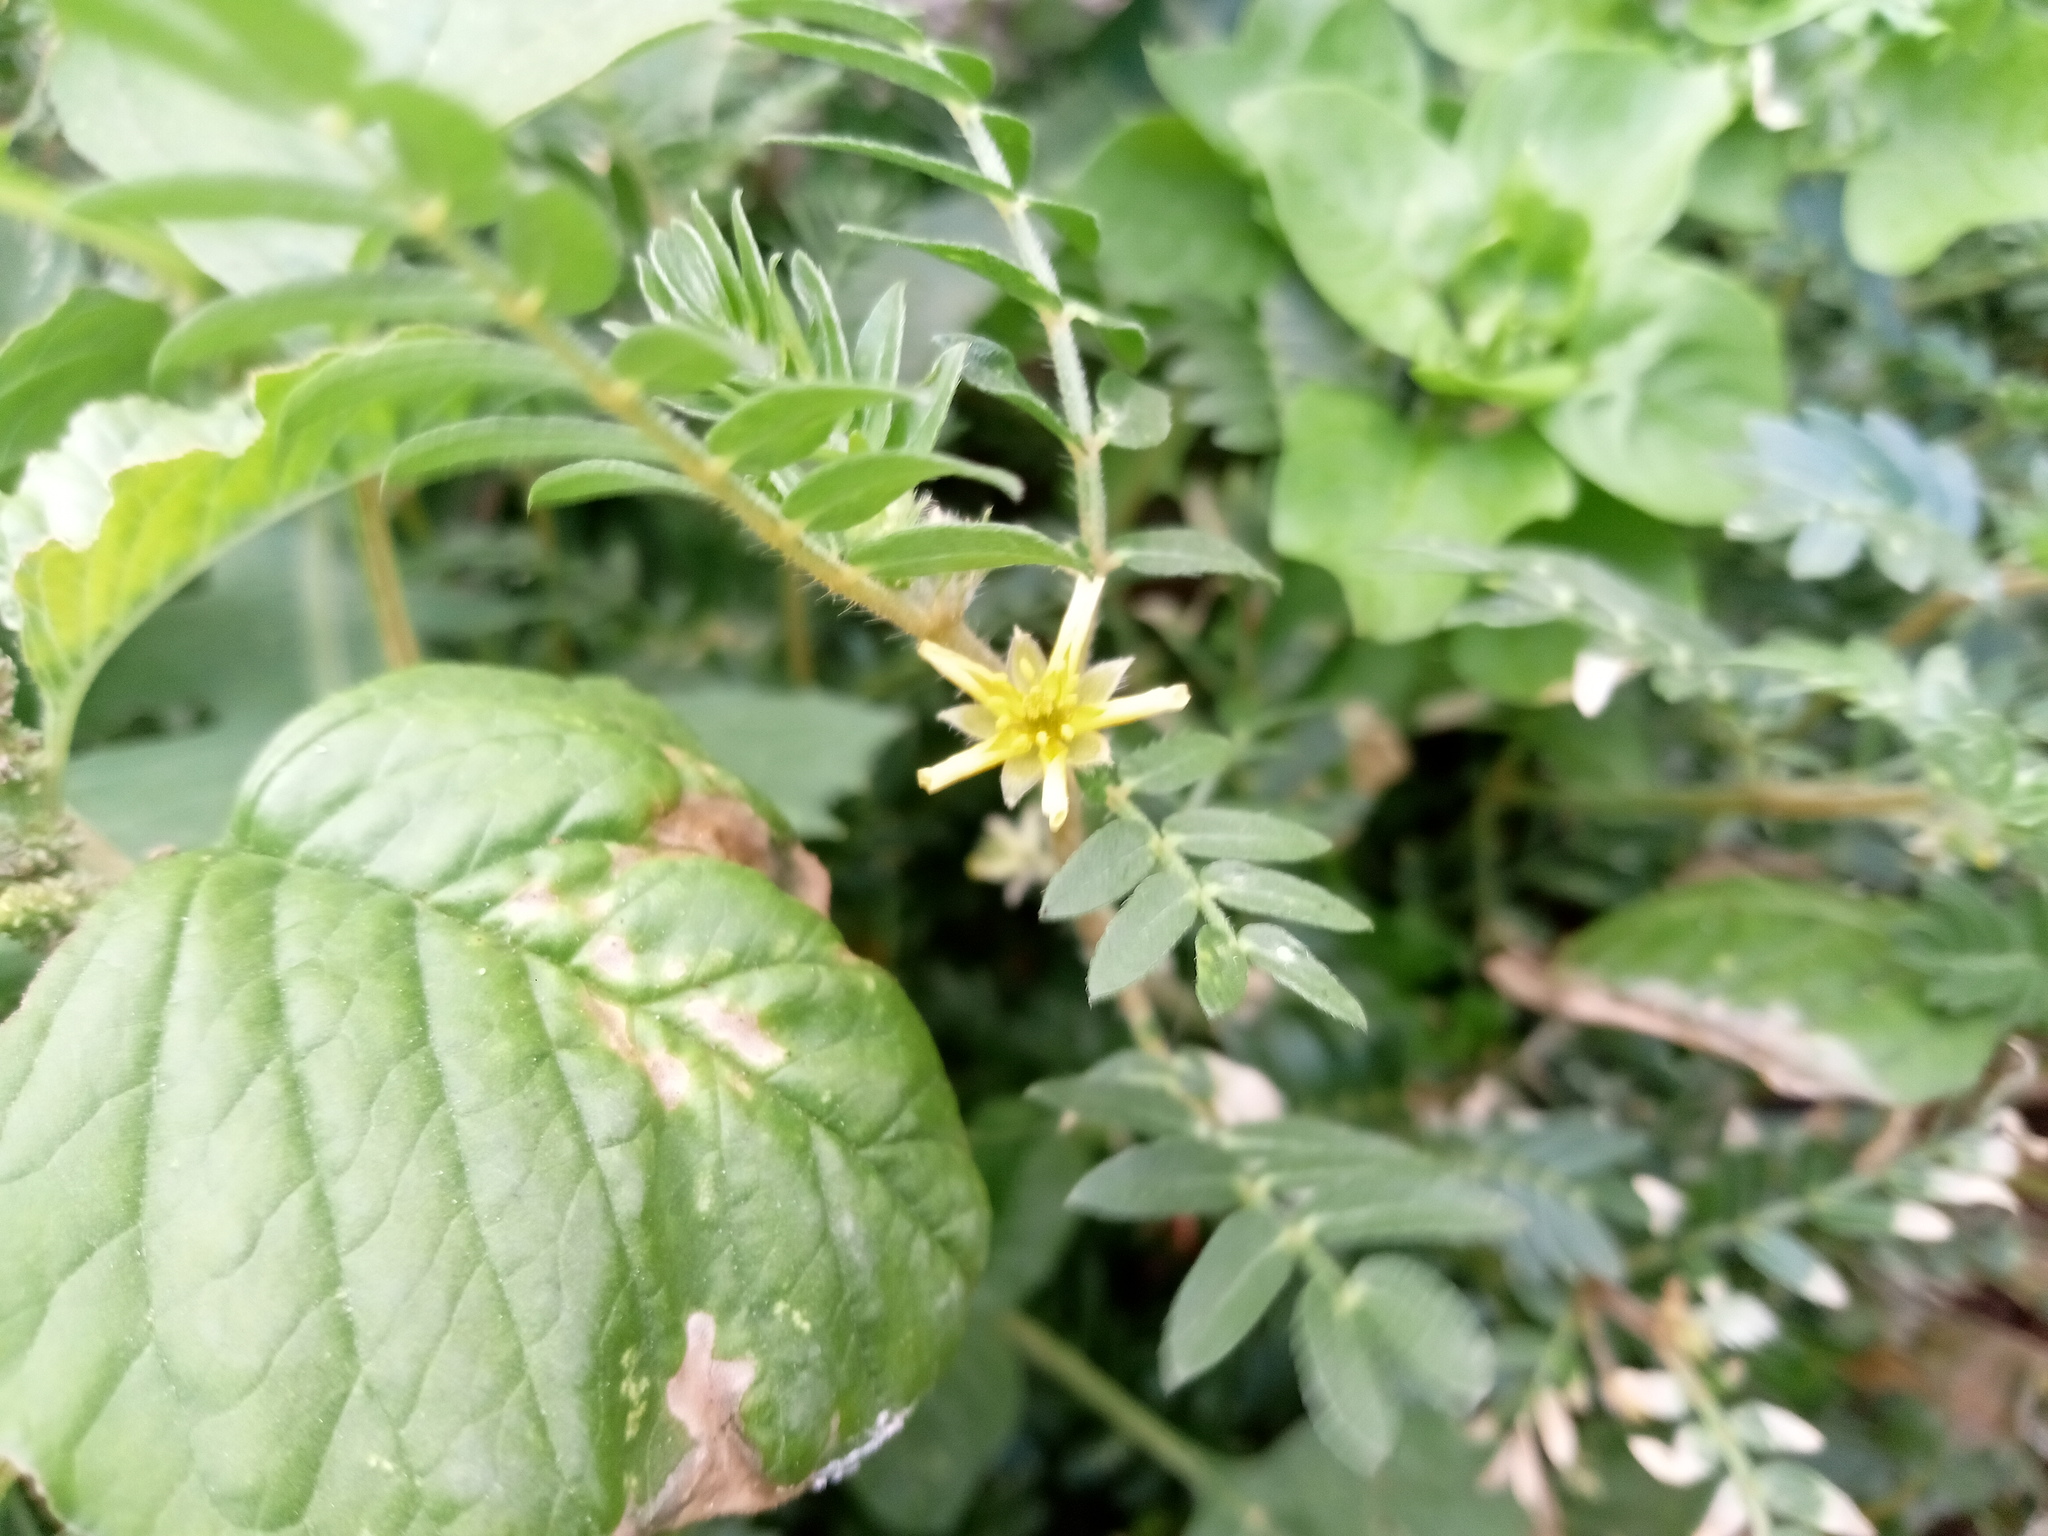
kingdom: Plantae
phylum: Tracheophyta
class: Magnoliopsida
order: Zygophyllales
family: Zygophyllaceae
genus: Tribulus
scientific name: Tribulus terrestris
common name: Puncturevine
